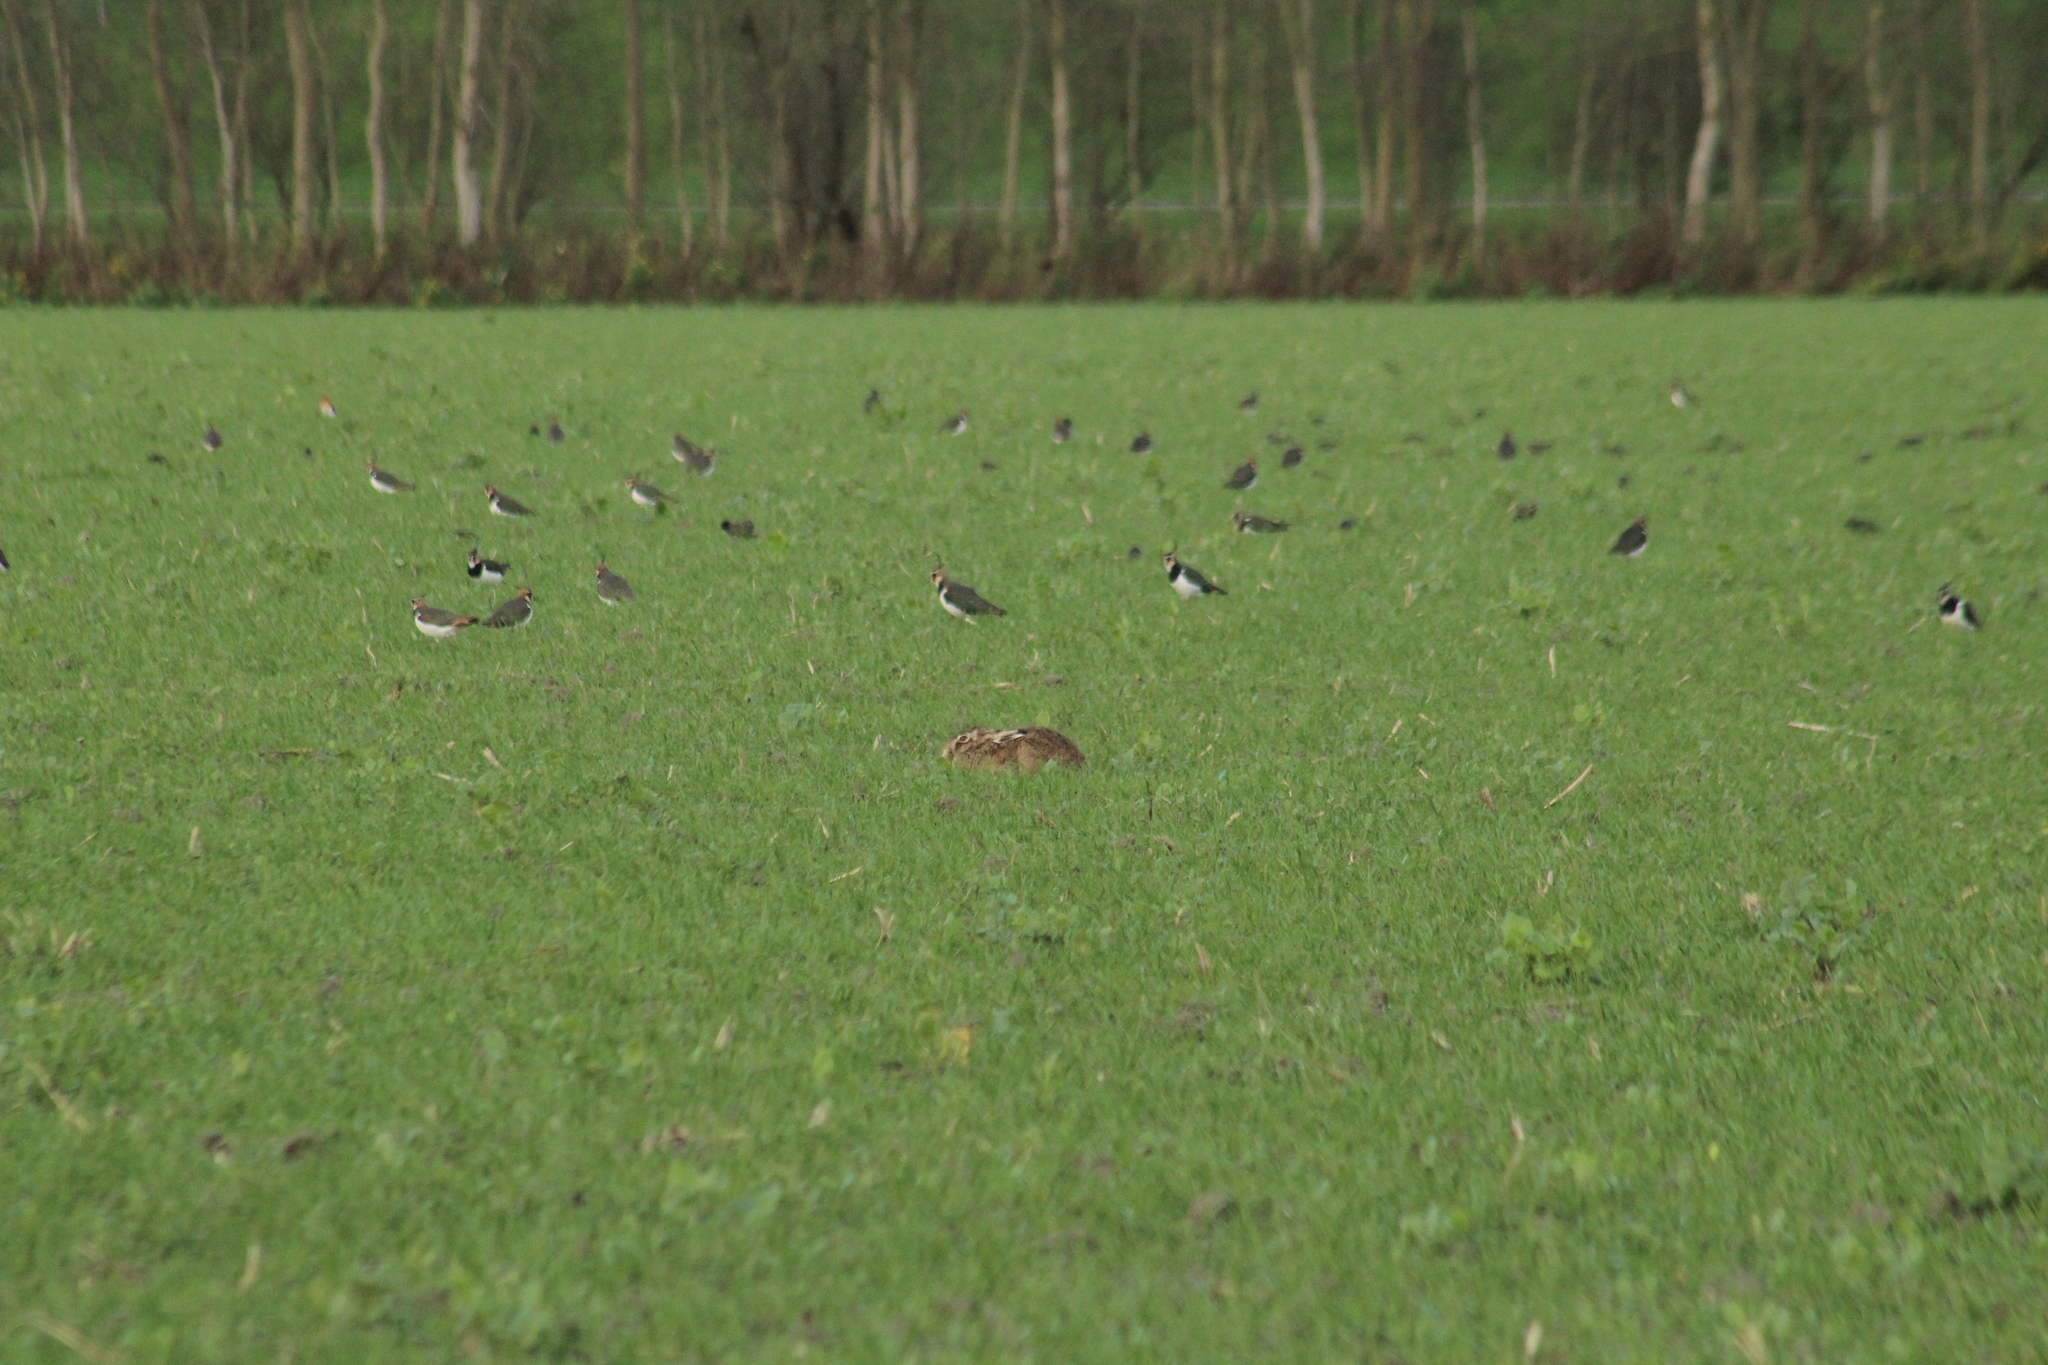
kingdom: Animalia
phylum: Chordata
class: Mammalia
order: Lagomorpha
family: Leporidae
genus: Lepus
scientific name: Lepus europaeus
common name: European hare
